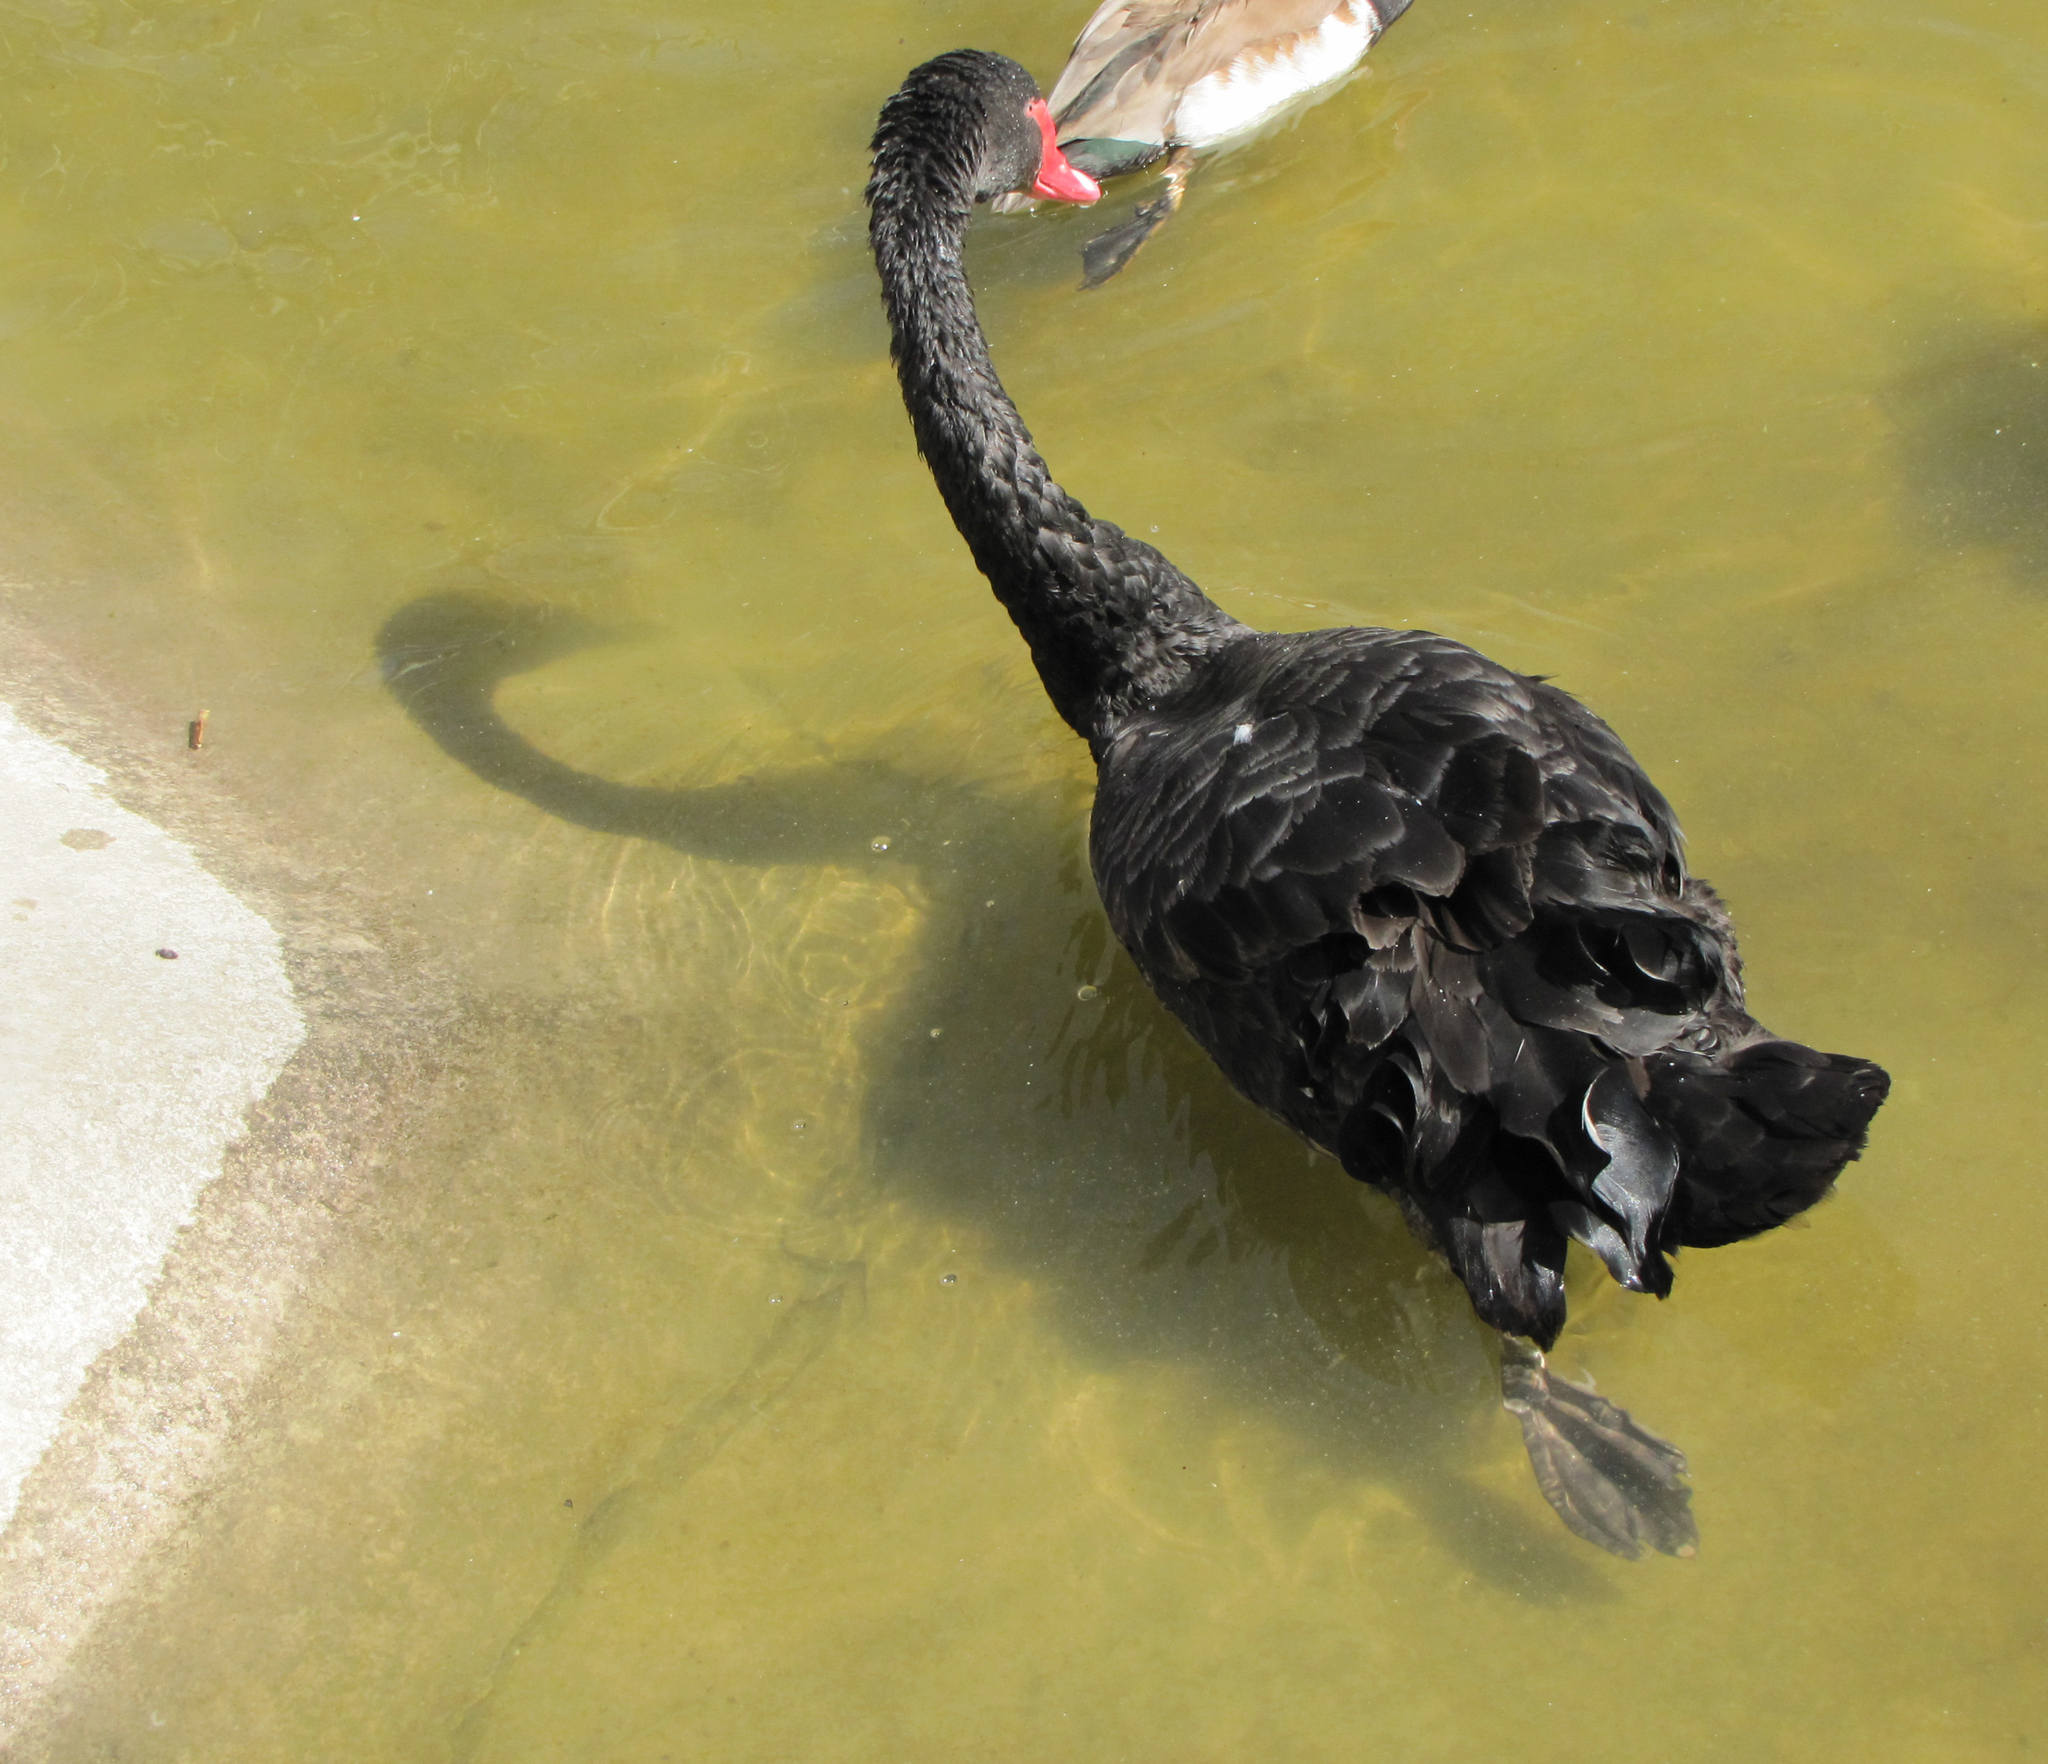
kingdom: Animalia
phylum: Chordata
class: Aves
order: Anseriformes
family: Anatidae
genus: Cygnus
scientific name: Cygnus atratus
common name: Black swan
